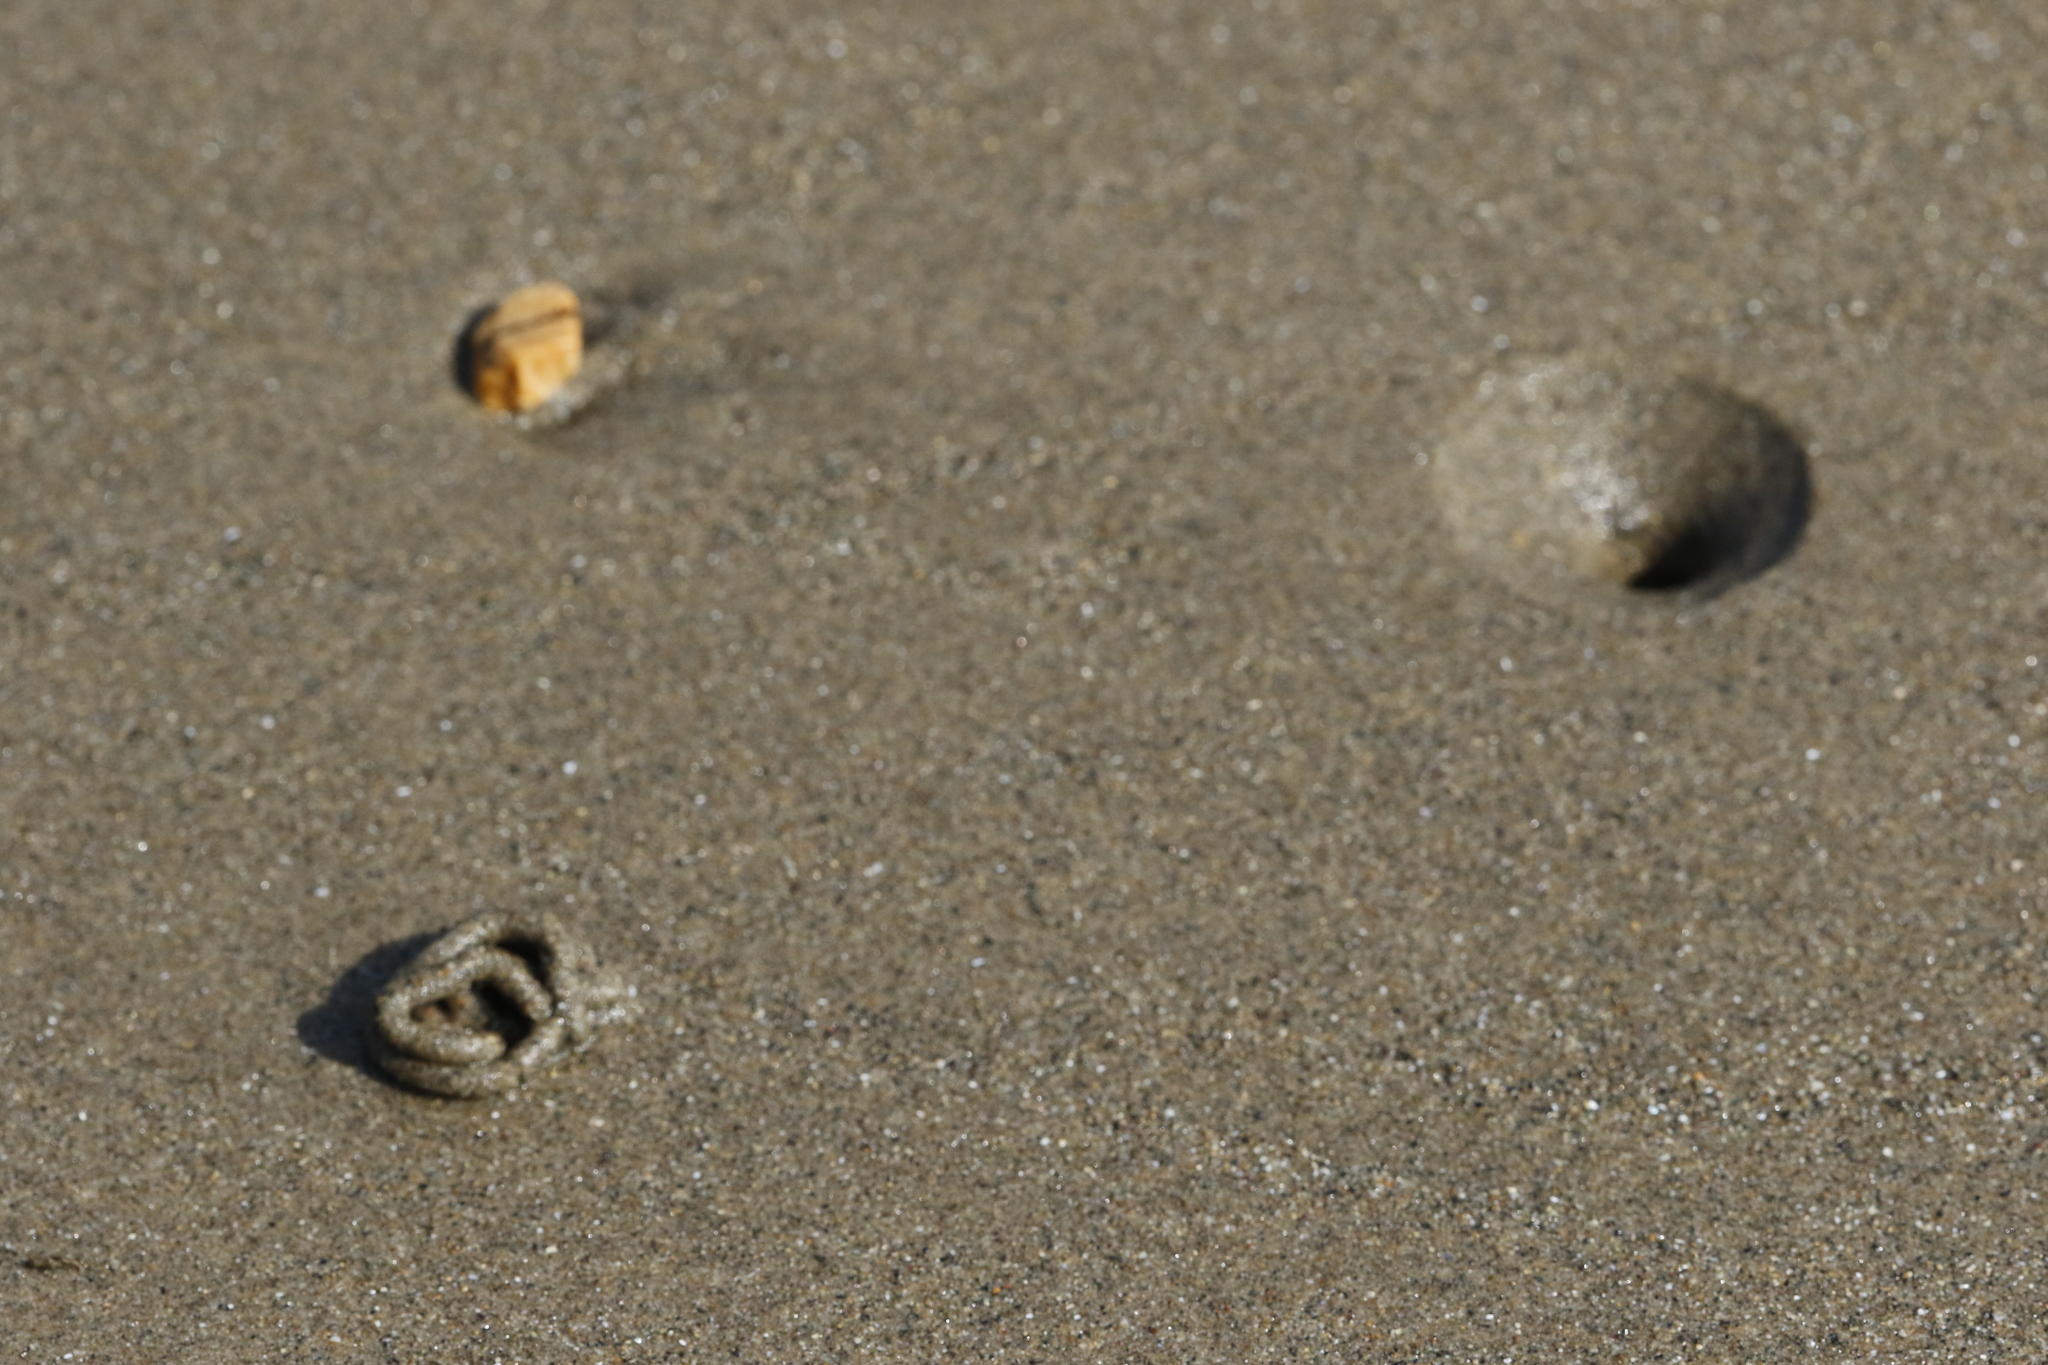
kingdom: Animalia
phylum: Annelida
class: Polychaeta
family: Arenicolidae
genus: Arenicola
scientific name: Arenicola marina
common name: Blow lugworm
